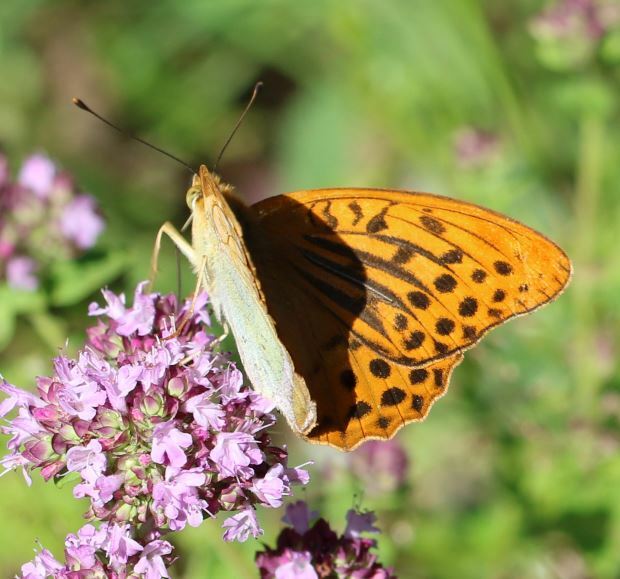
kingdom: Animalia
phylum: Arthropoda
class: Insecta
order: Lepidoptera
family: Nymphalidae
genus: Argynnis
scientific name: Argynnis paphia
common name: Silver-washed fritillary
